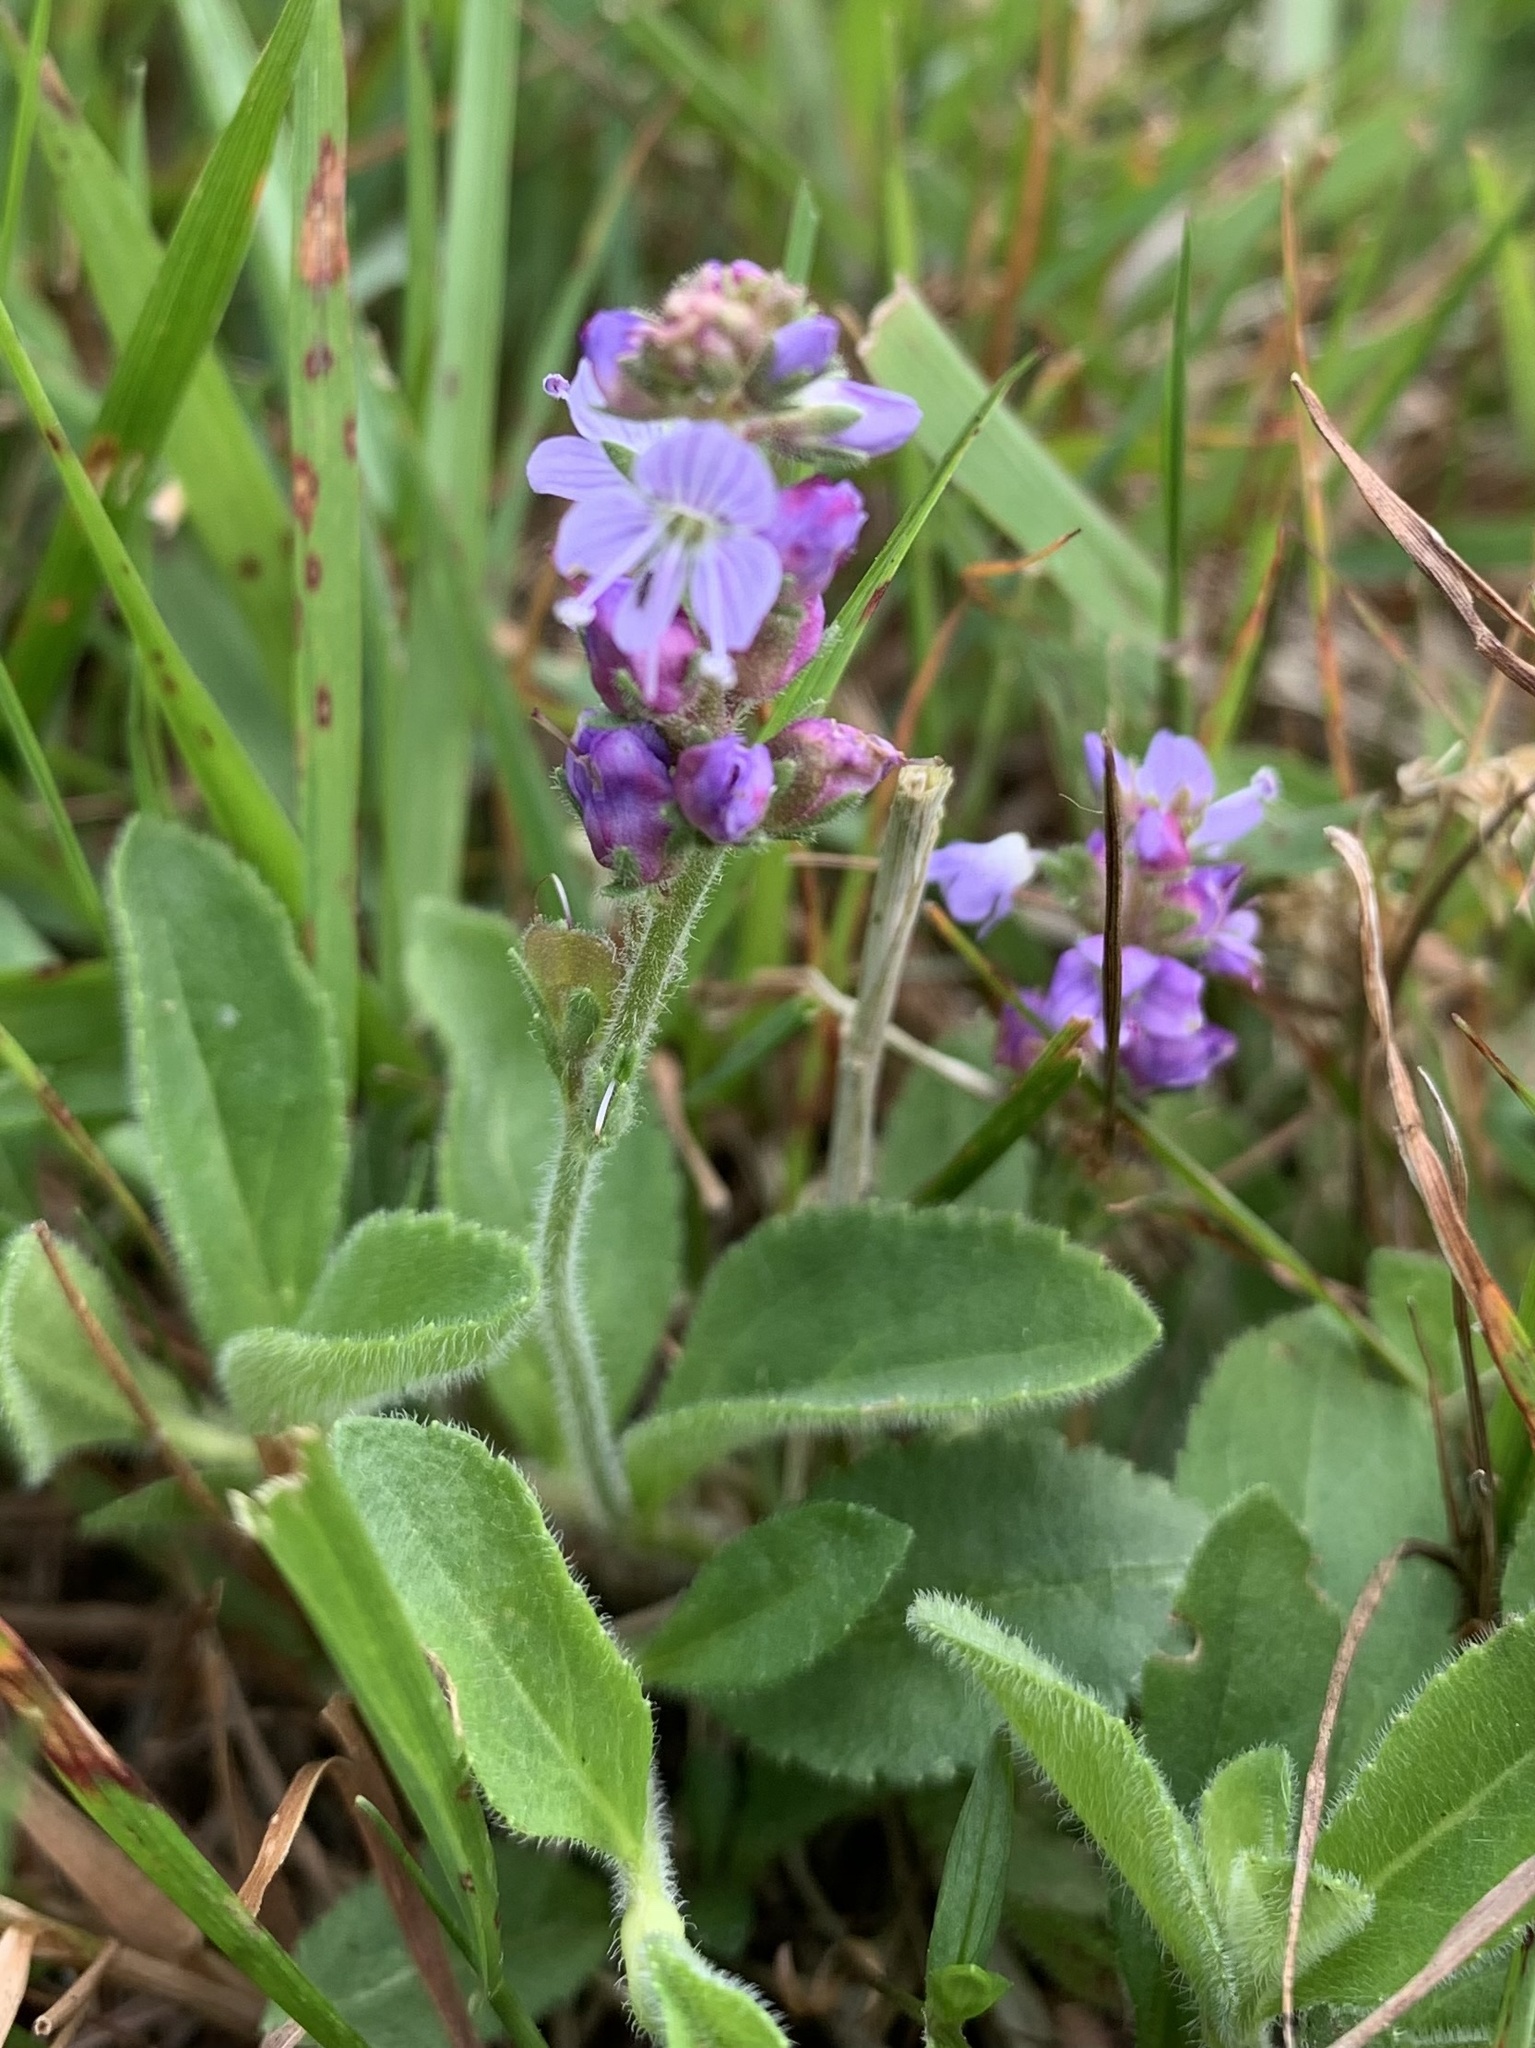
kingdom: Plantae
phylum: Tracheophyta
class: Magnoliopsida
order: Lamiales
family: Plantaginaceae
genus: Veronica
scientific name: Veronica officinalis
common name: Common speedwell
